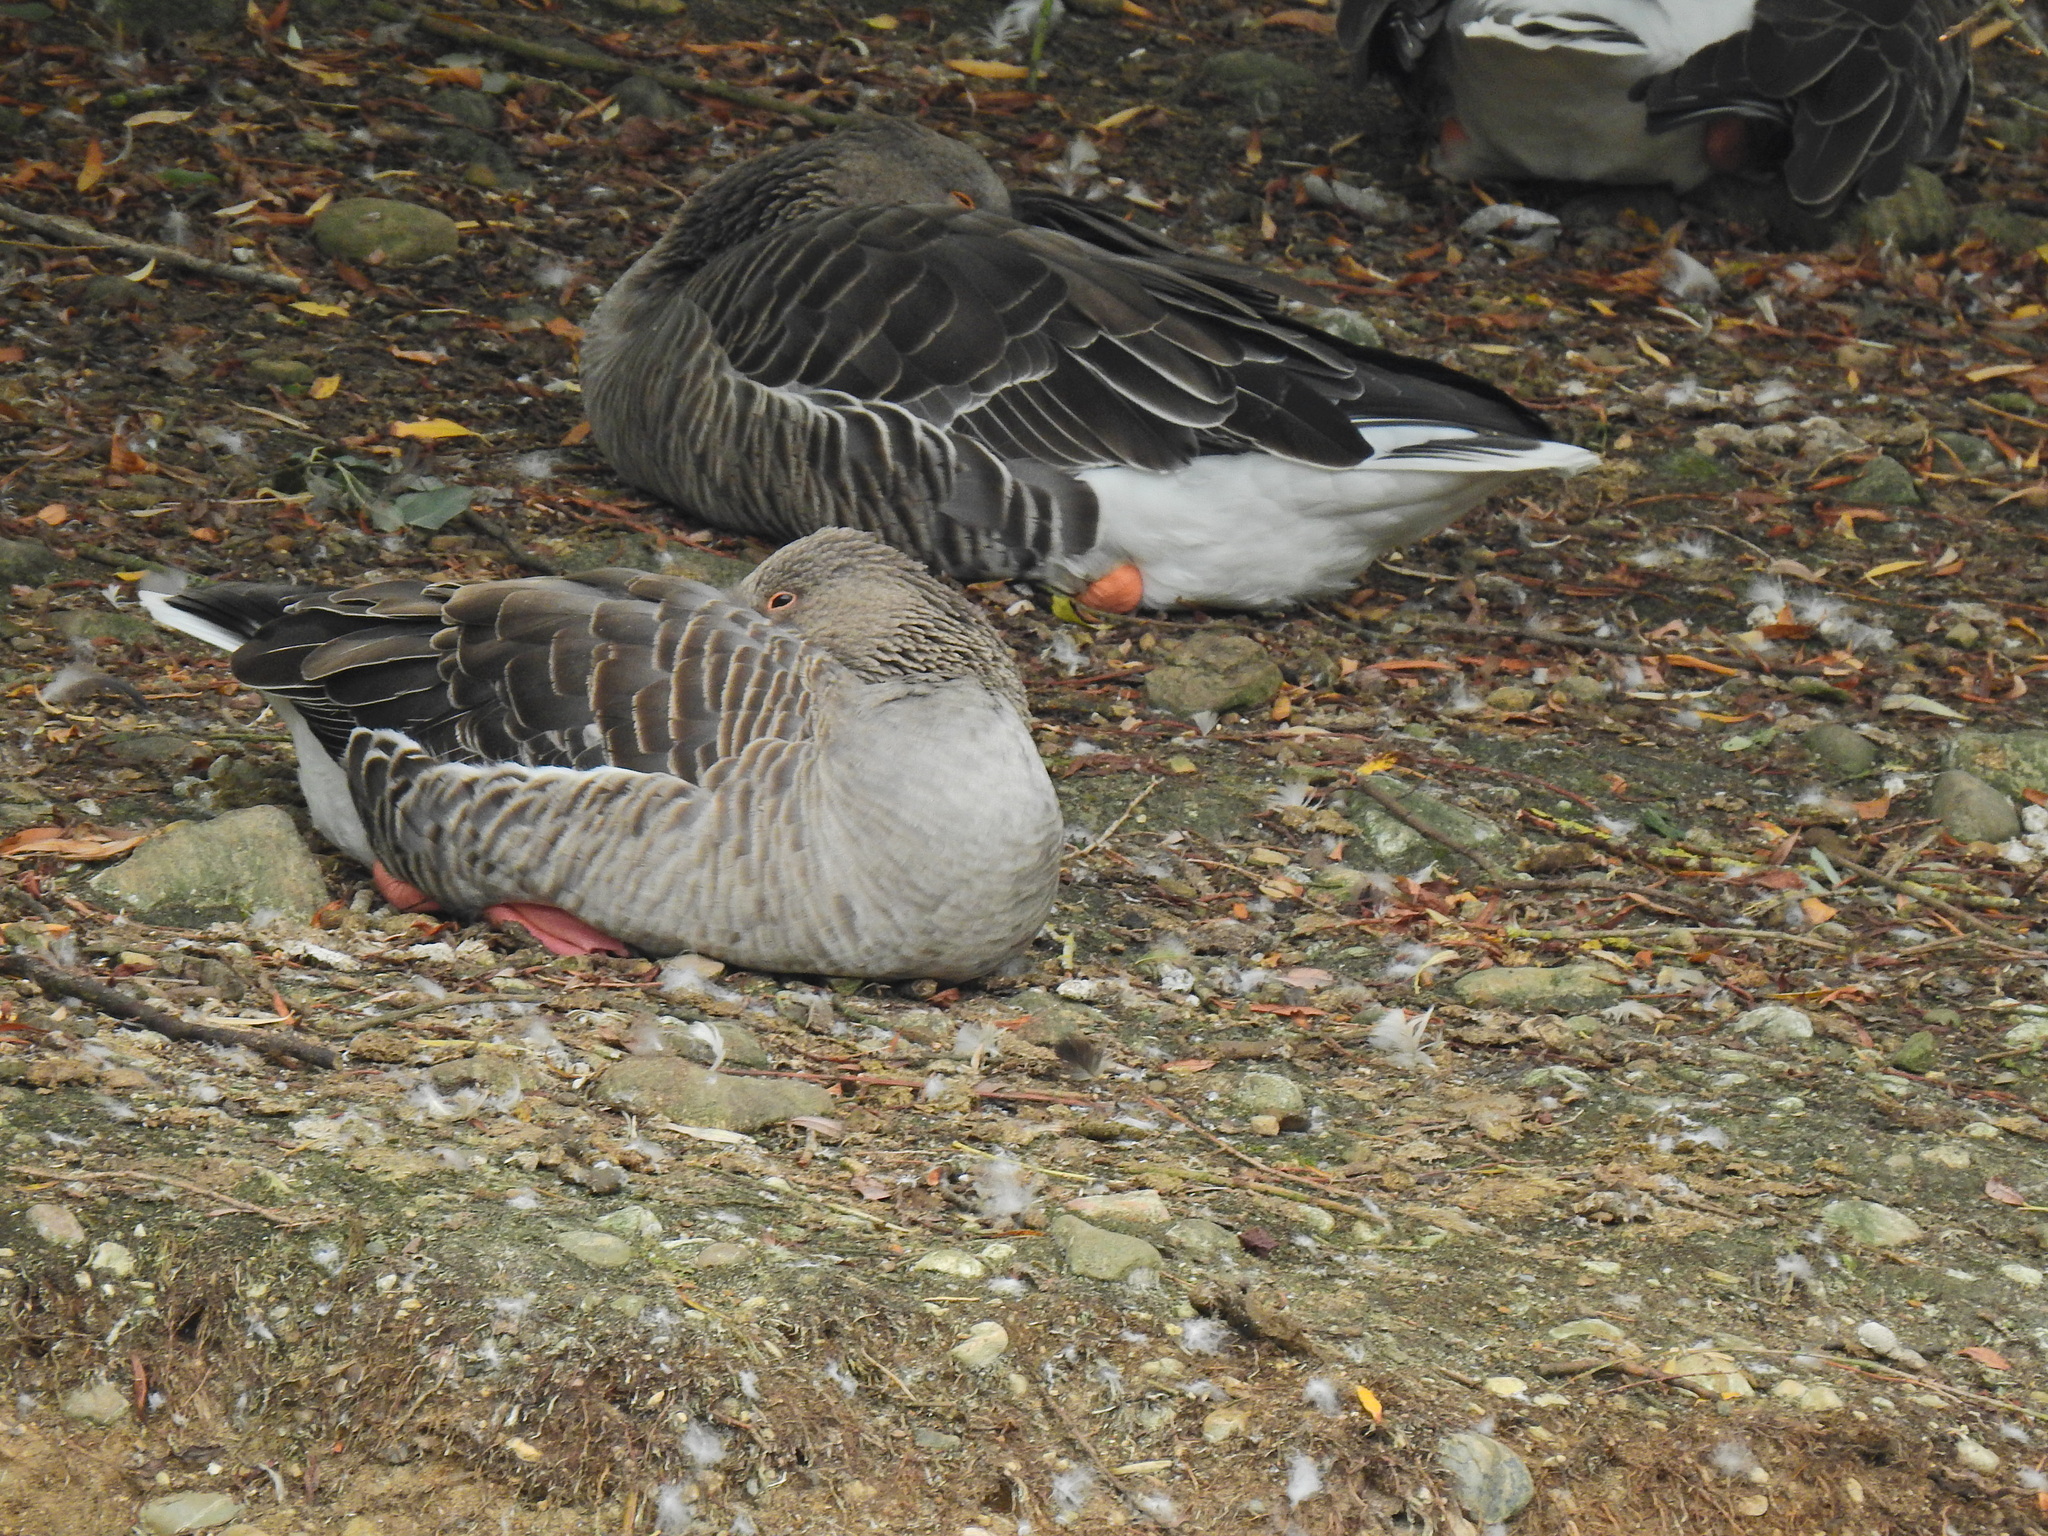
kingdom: Animalia
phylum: Chordata
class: Aves
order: Anseriformes
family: Anatidae
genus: Anser
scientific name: Anser anser
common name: Greylag goose
